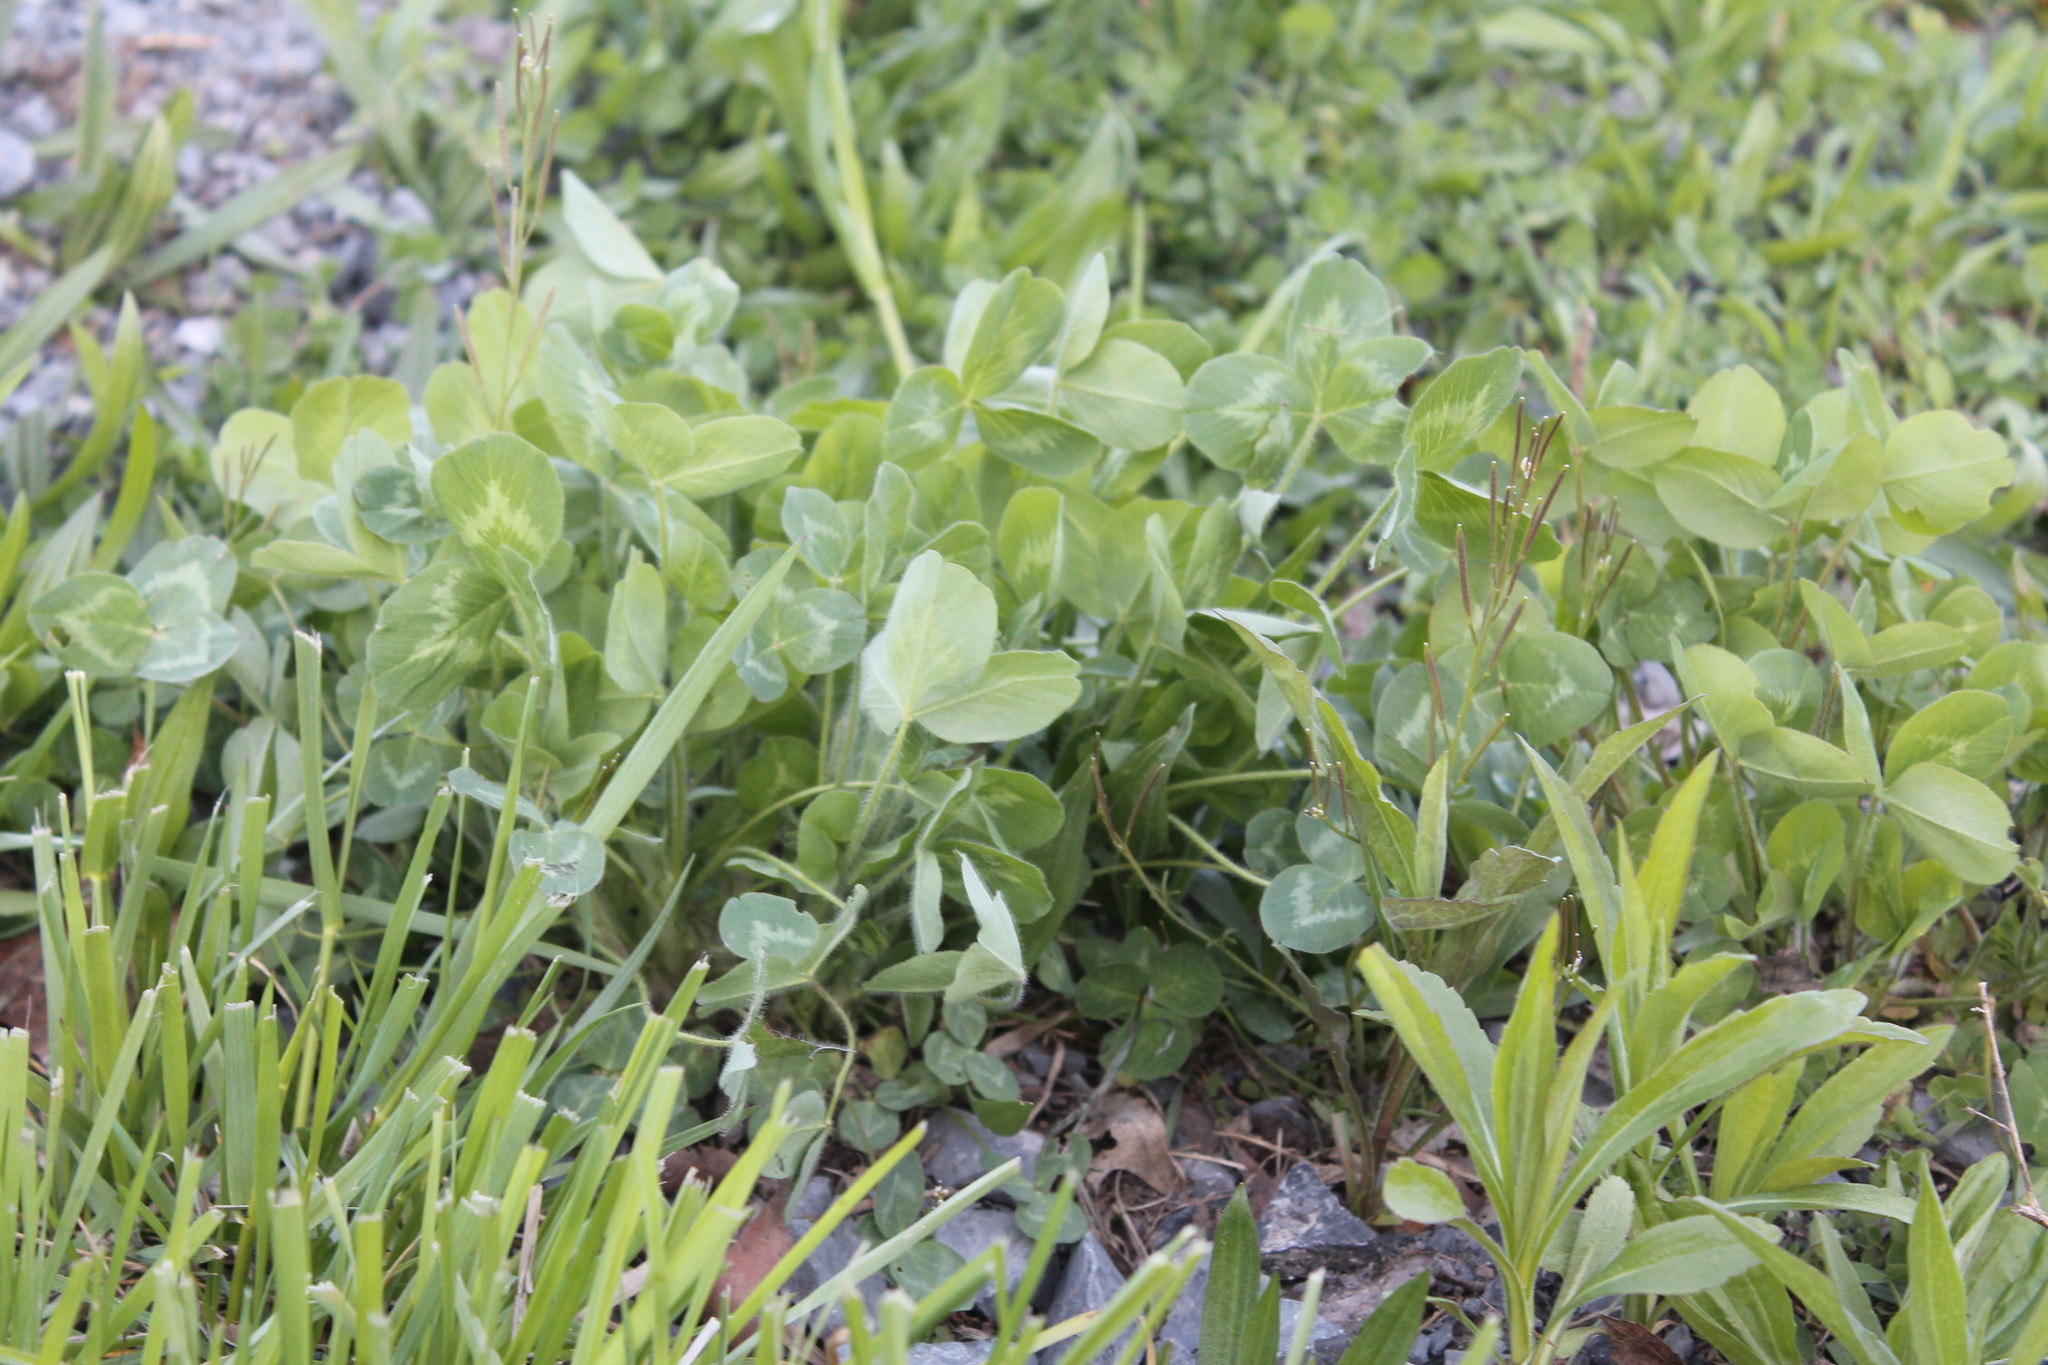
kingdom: Plantae
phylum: Tracheophyta
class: Magnoliopsida
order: Fabales
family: Fabaceae
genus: Trifolium
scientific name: Trifolium pratense
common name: Red clover
